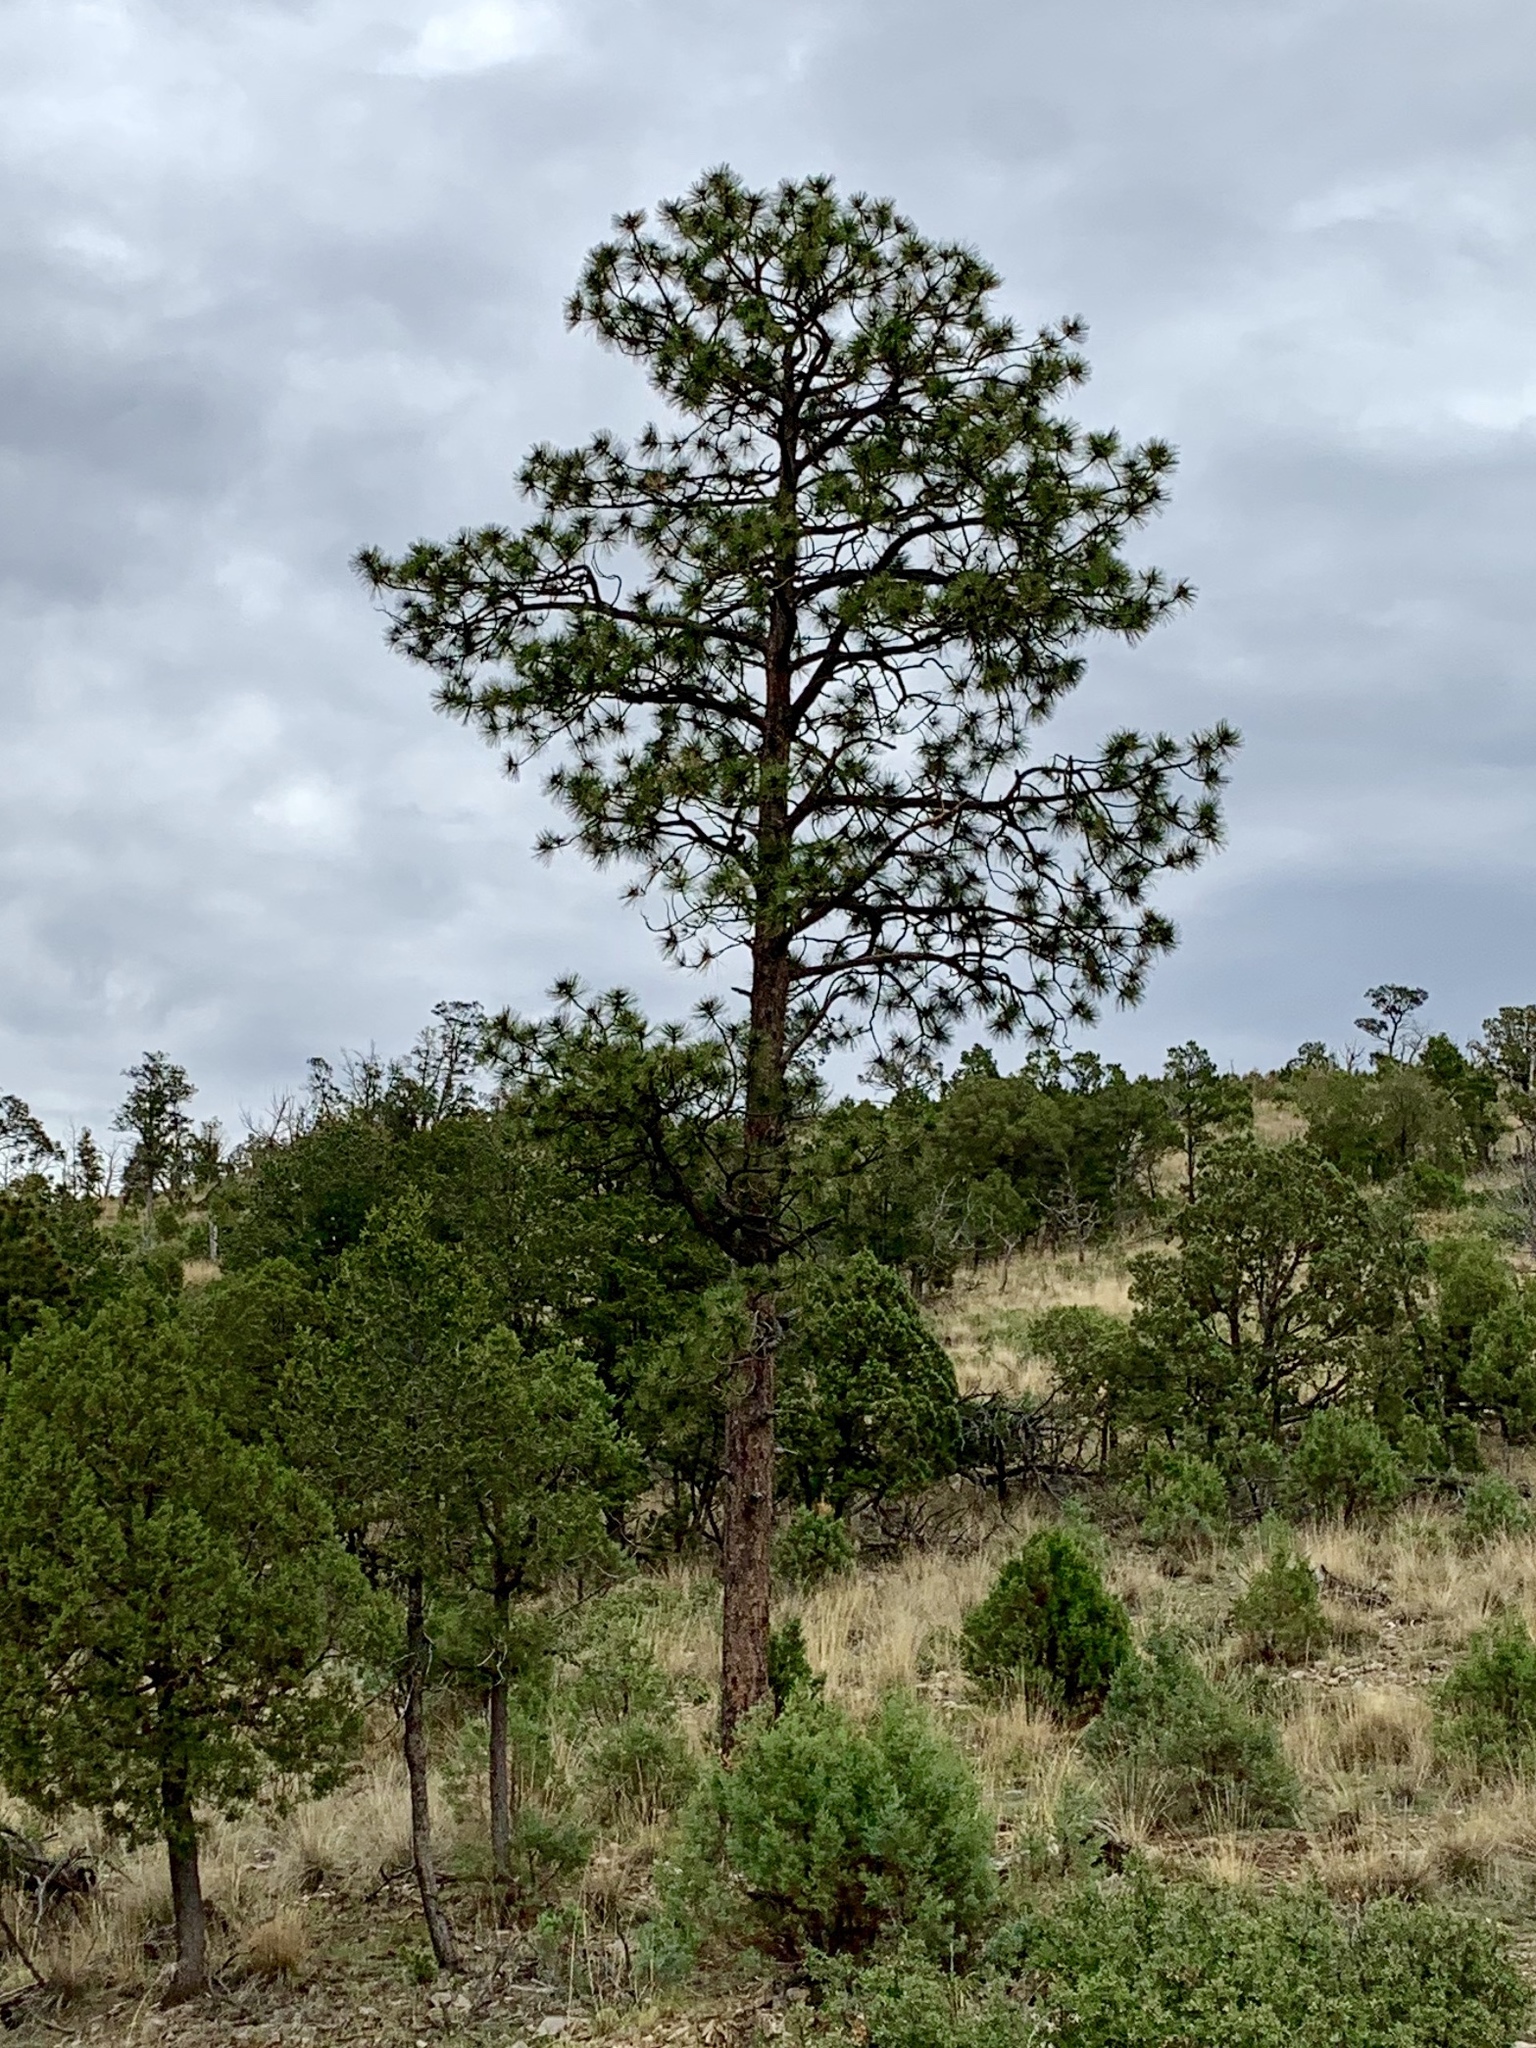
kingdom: Plantae
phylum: Tracheophyta
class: Pinopsida
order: Pinales
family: Pinaceae
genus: Pinus
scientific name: Pinus ponderosa
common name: Western yellow-pine
